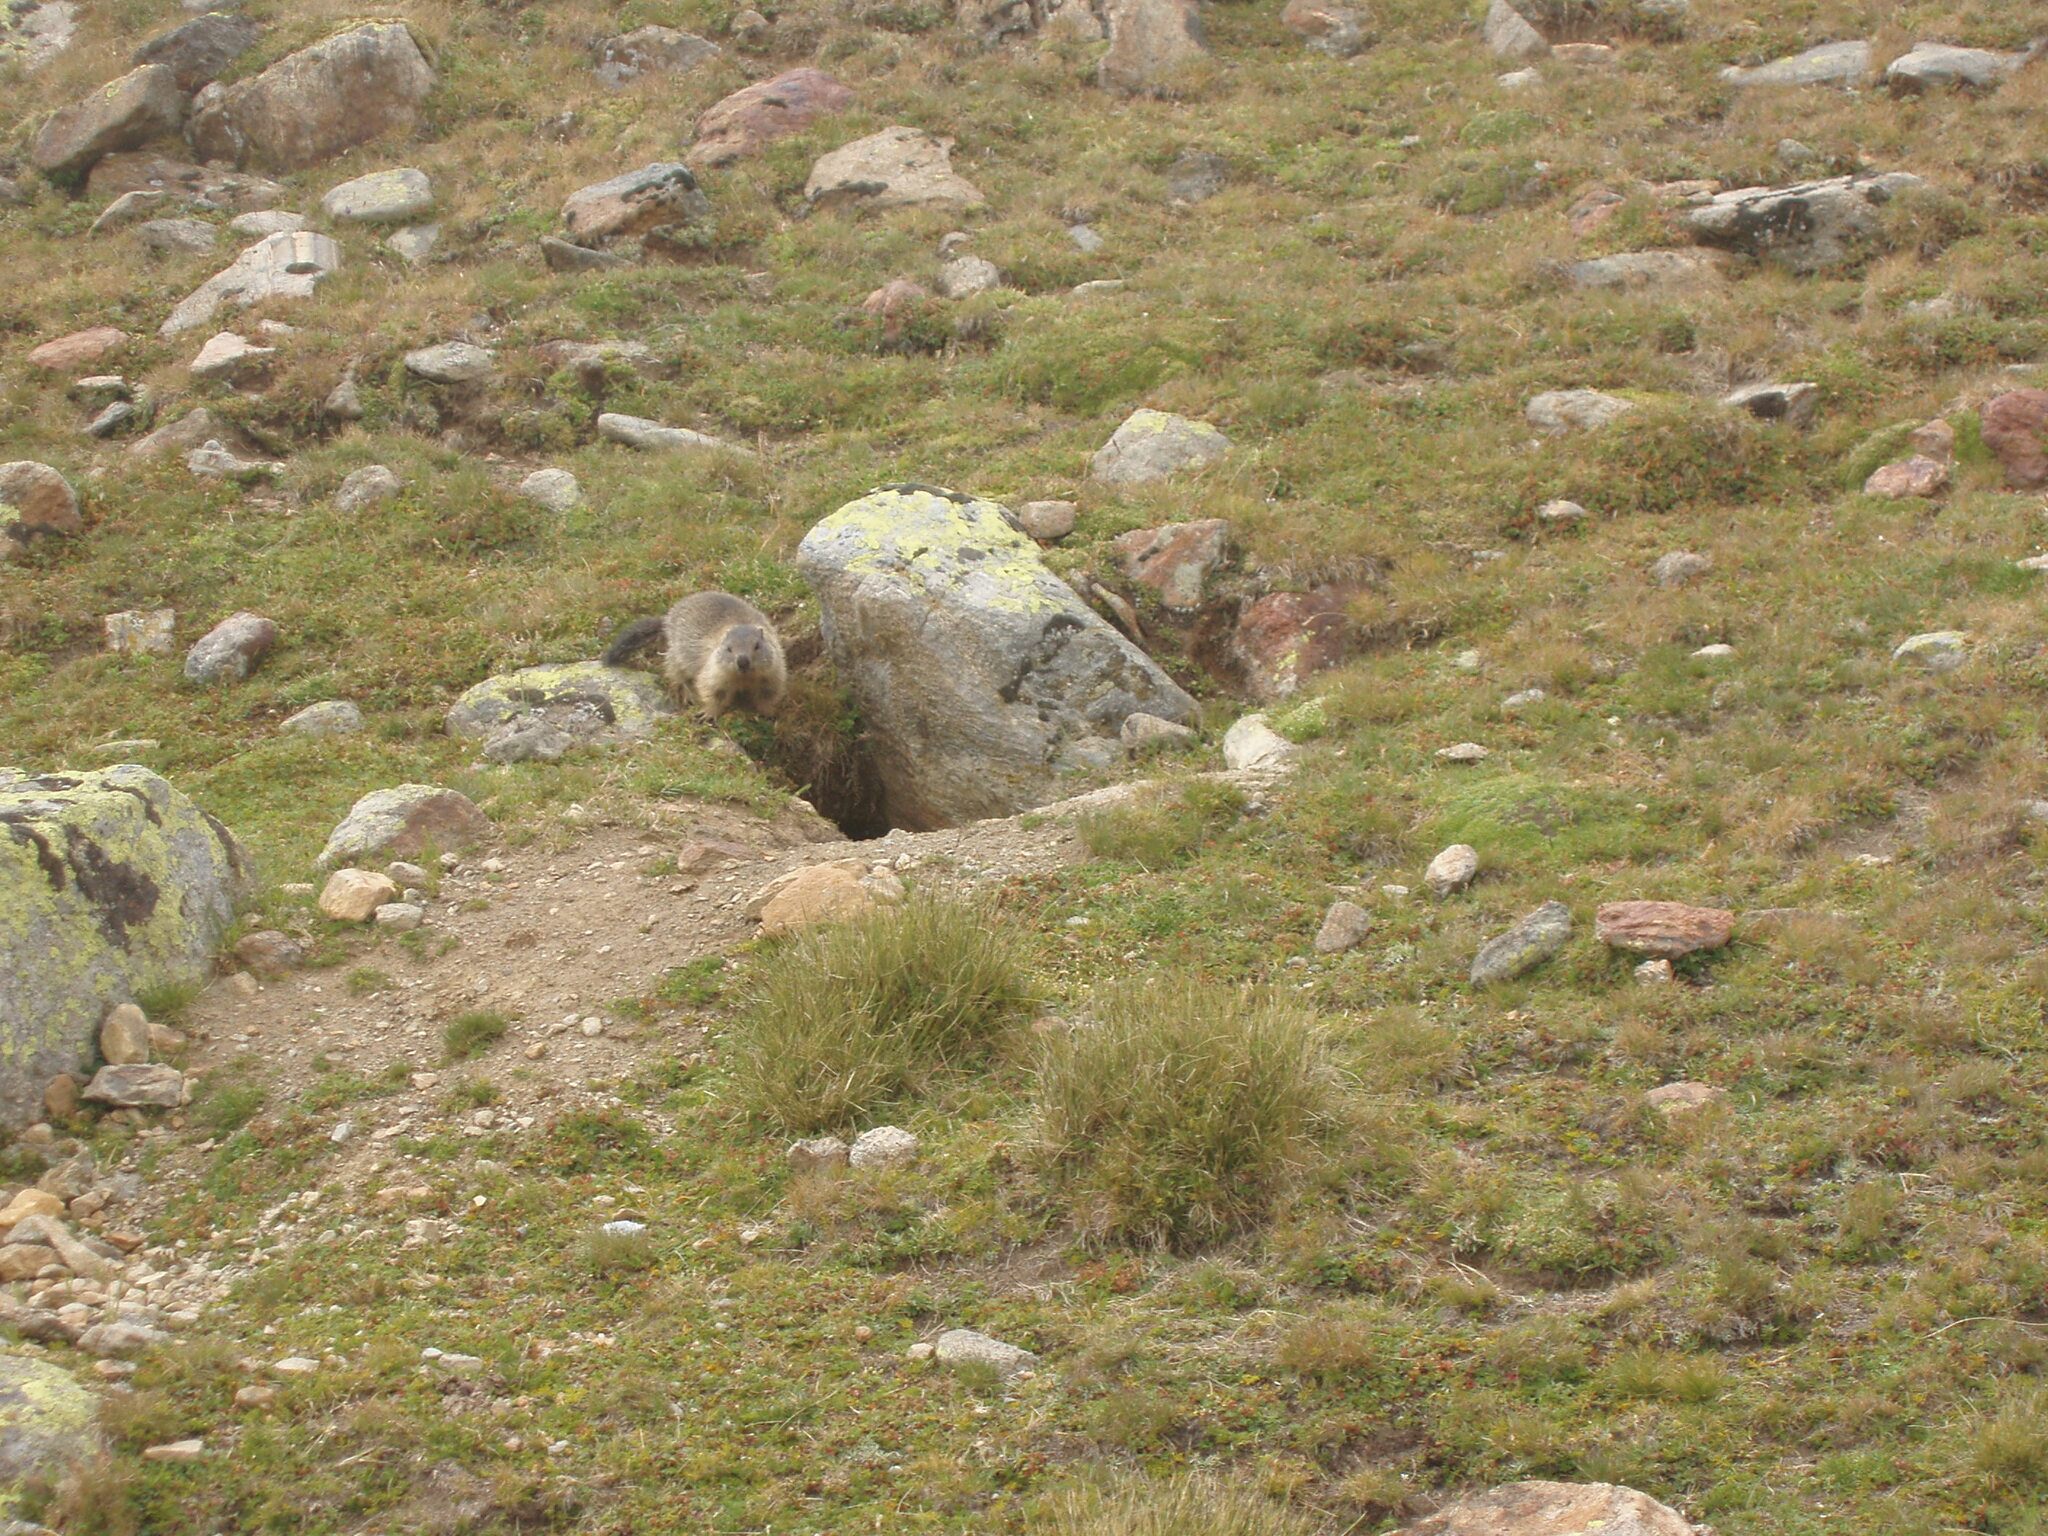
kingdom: Animalia
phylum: Chordata
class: Mammalia
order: Rodentia
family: Sciuridae
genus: Marmota
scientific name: Marmota marmota
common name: Alpine marmot
